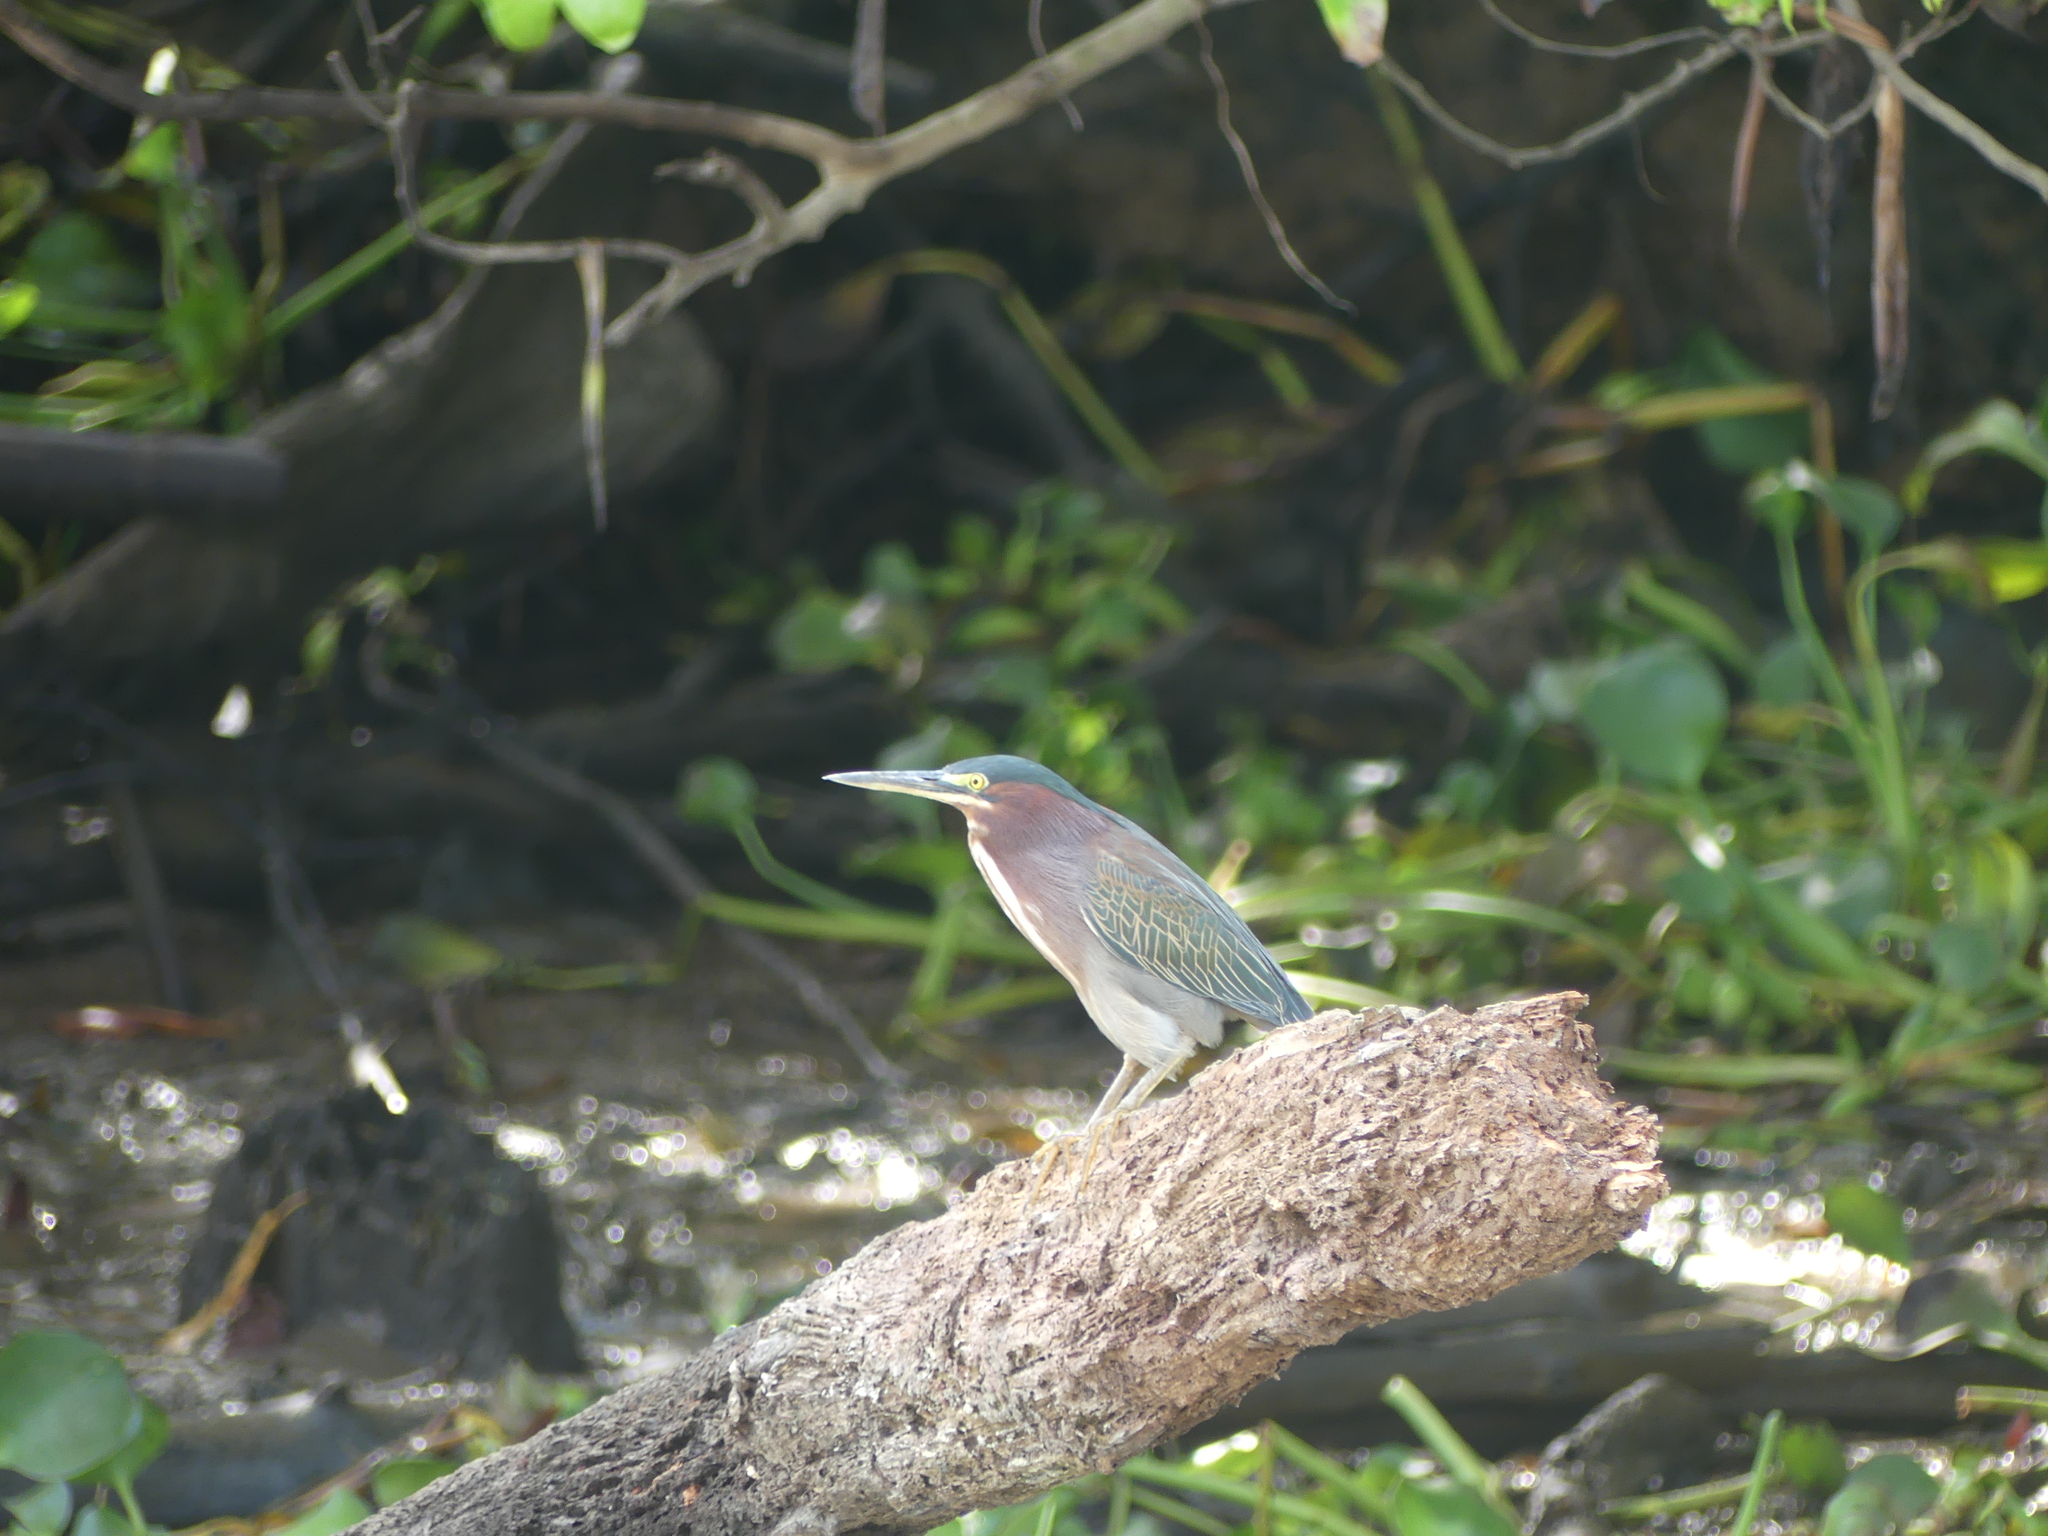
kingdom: Animalia
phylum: Chordata
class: Aves
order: Pelecaniformes
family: Ardeidae
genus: Butorides
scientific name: Butorides virescens
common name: Green heron
